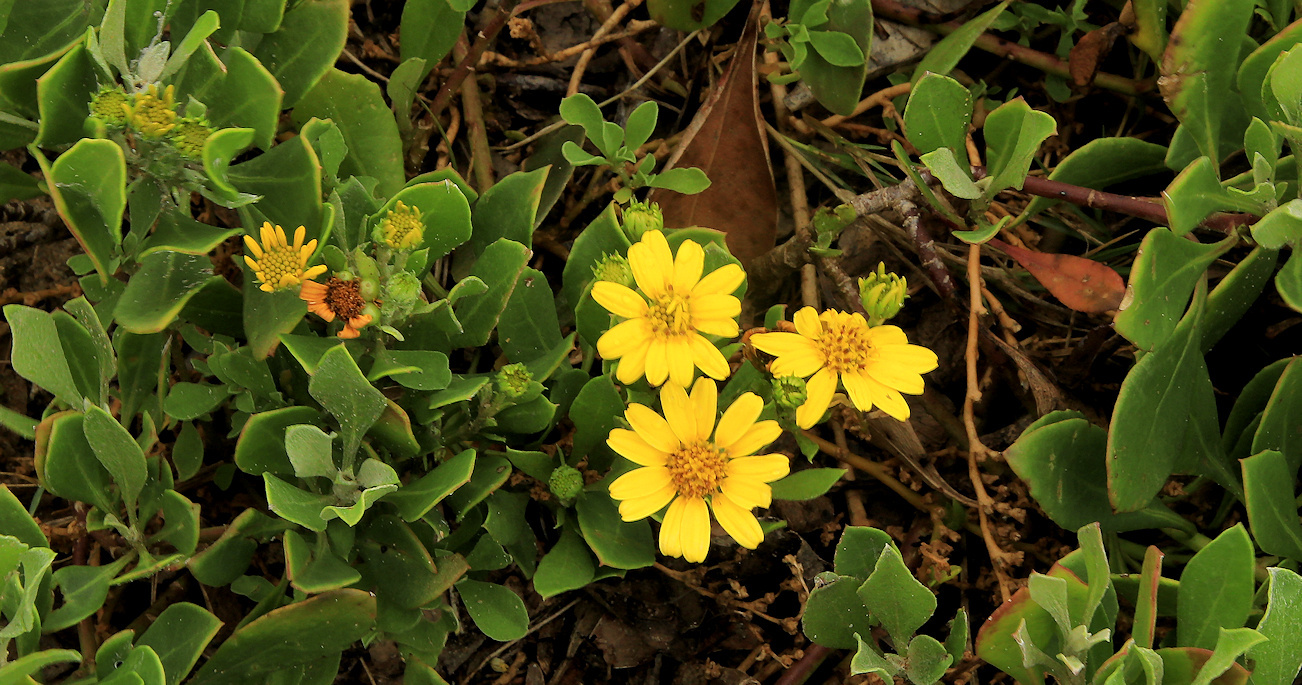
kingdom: Plantae
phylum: Tracheophyta
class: Magnoliopsida
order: Asterales
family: Asteraceae
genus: Osteospermum
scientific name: Osteospermum moniliferum
